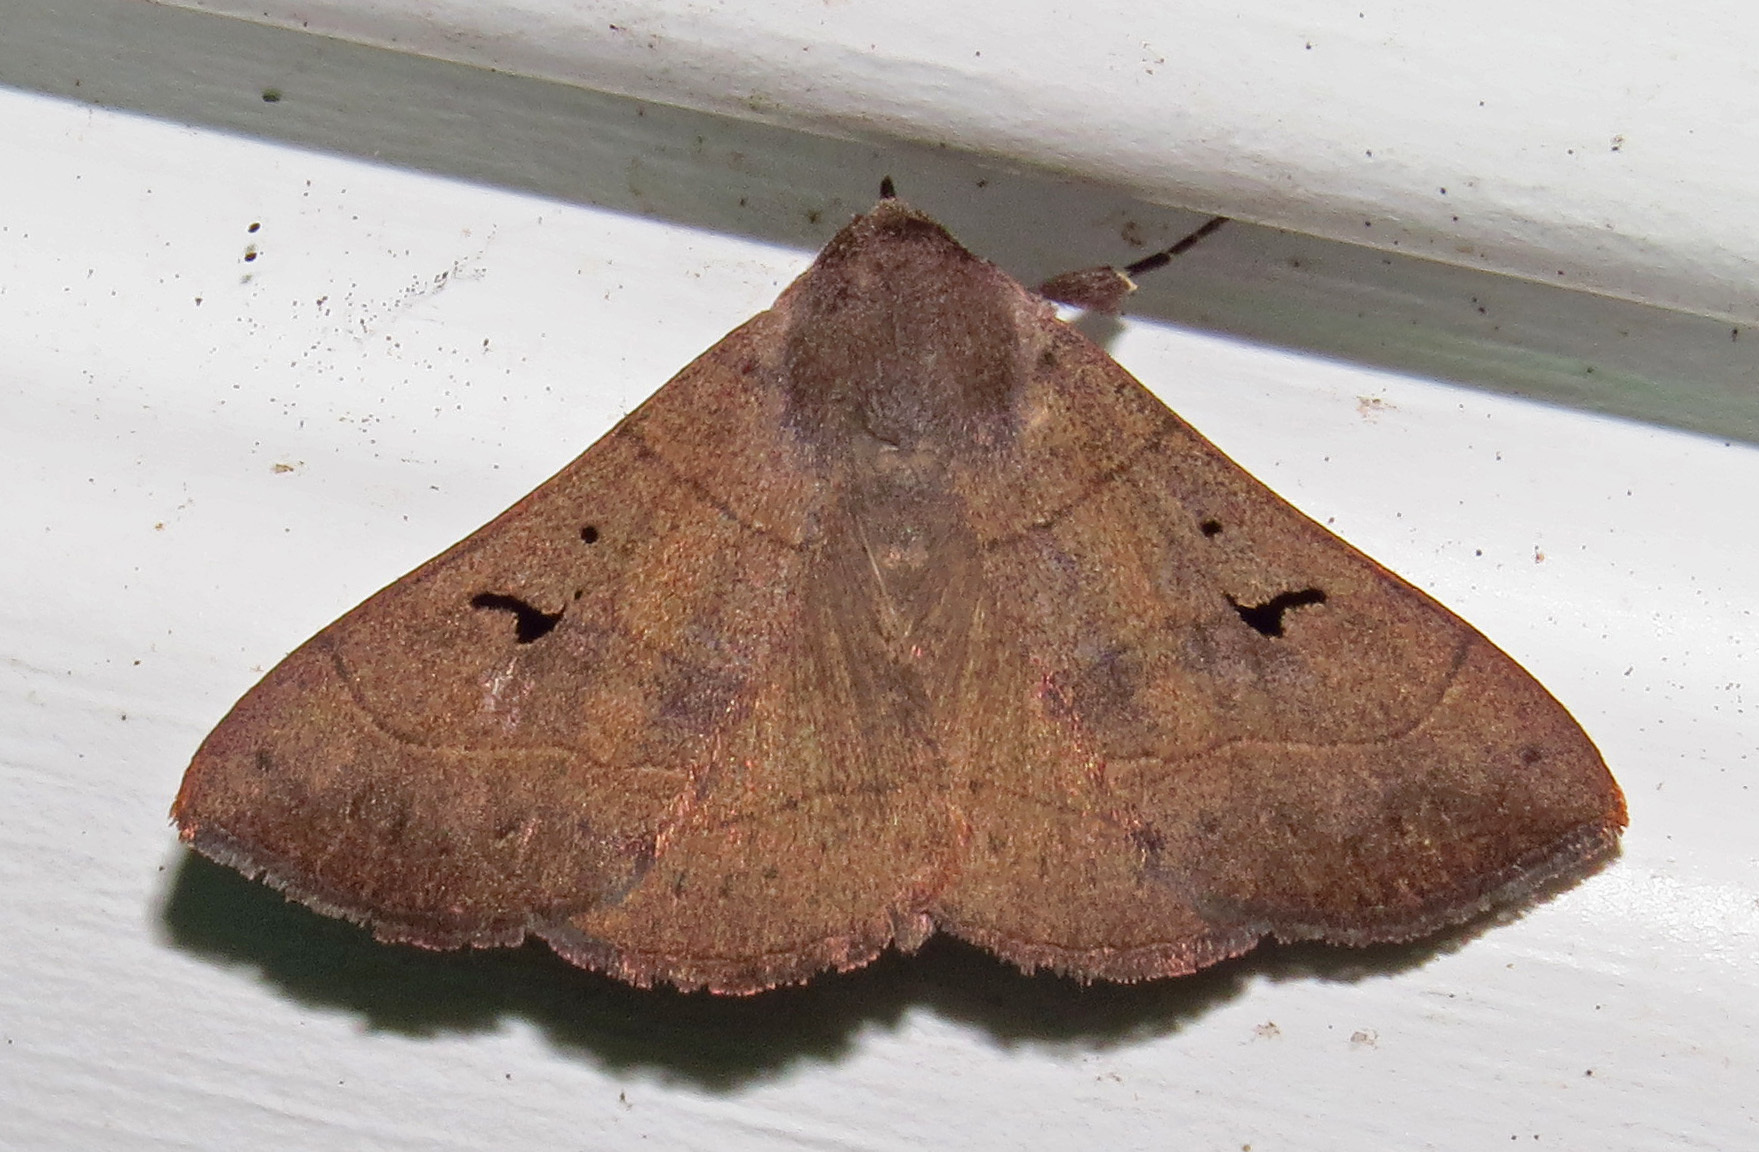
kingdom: Animalia
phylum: Arthropoda
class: Insecta
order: Lepidoptera
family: Erebidae
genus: Panopoda
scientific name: Panopoda carneicosta
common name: Brown panopoda moth
